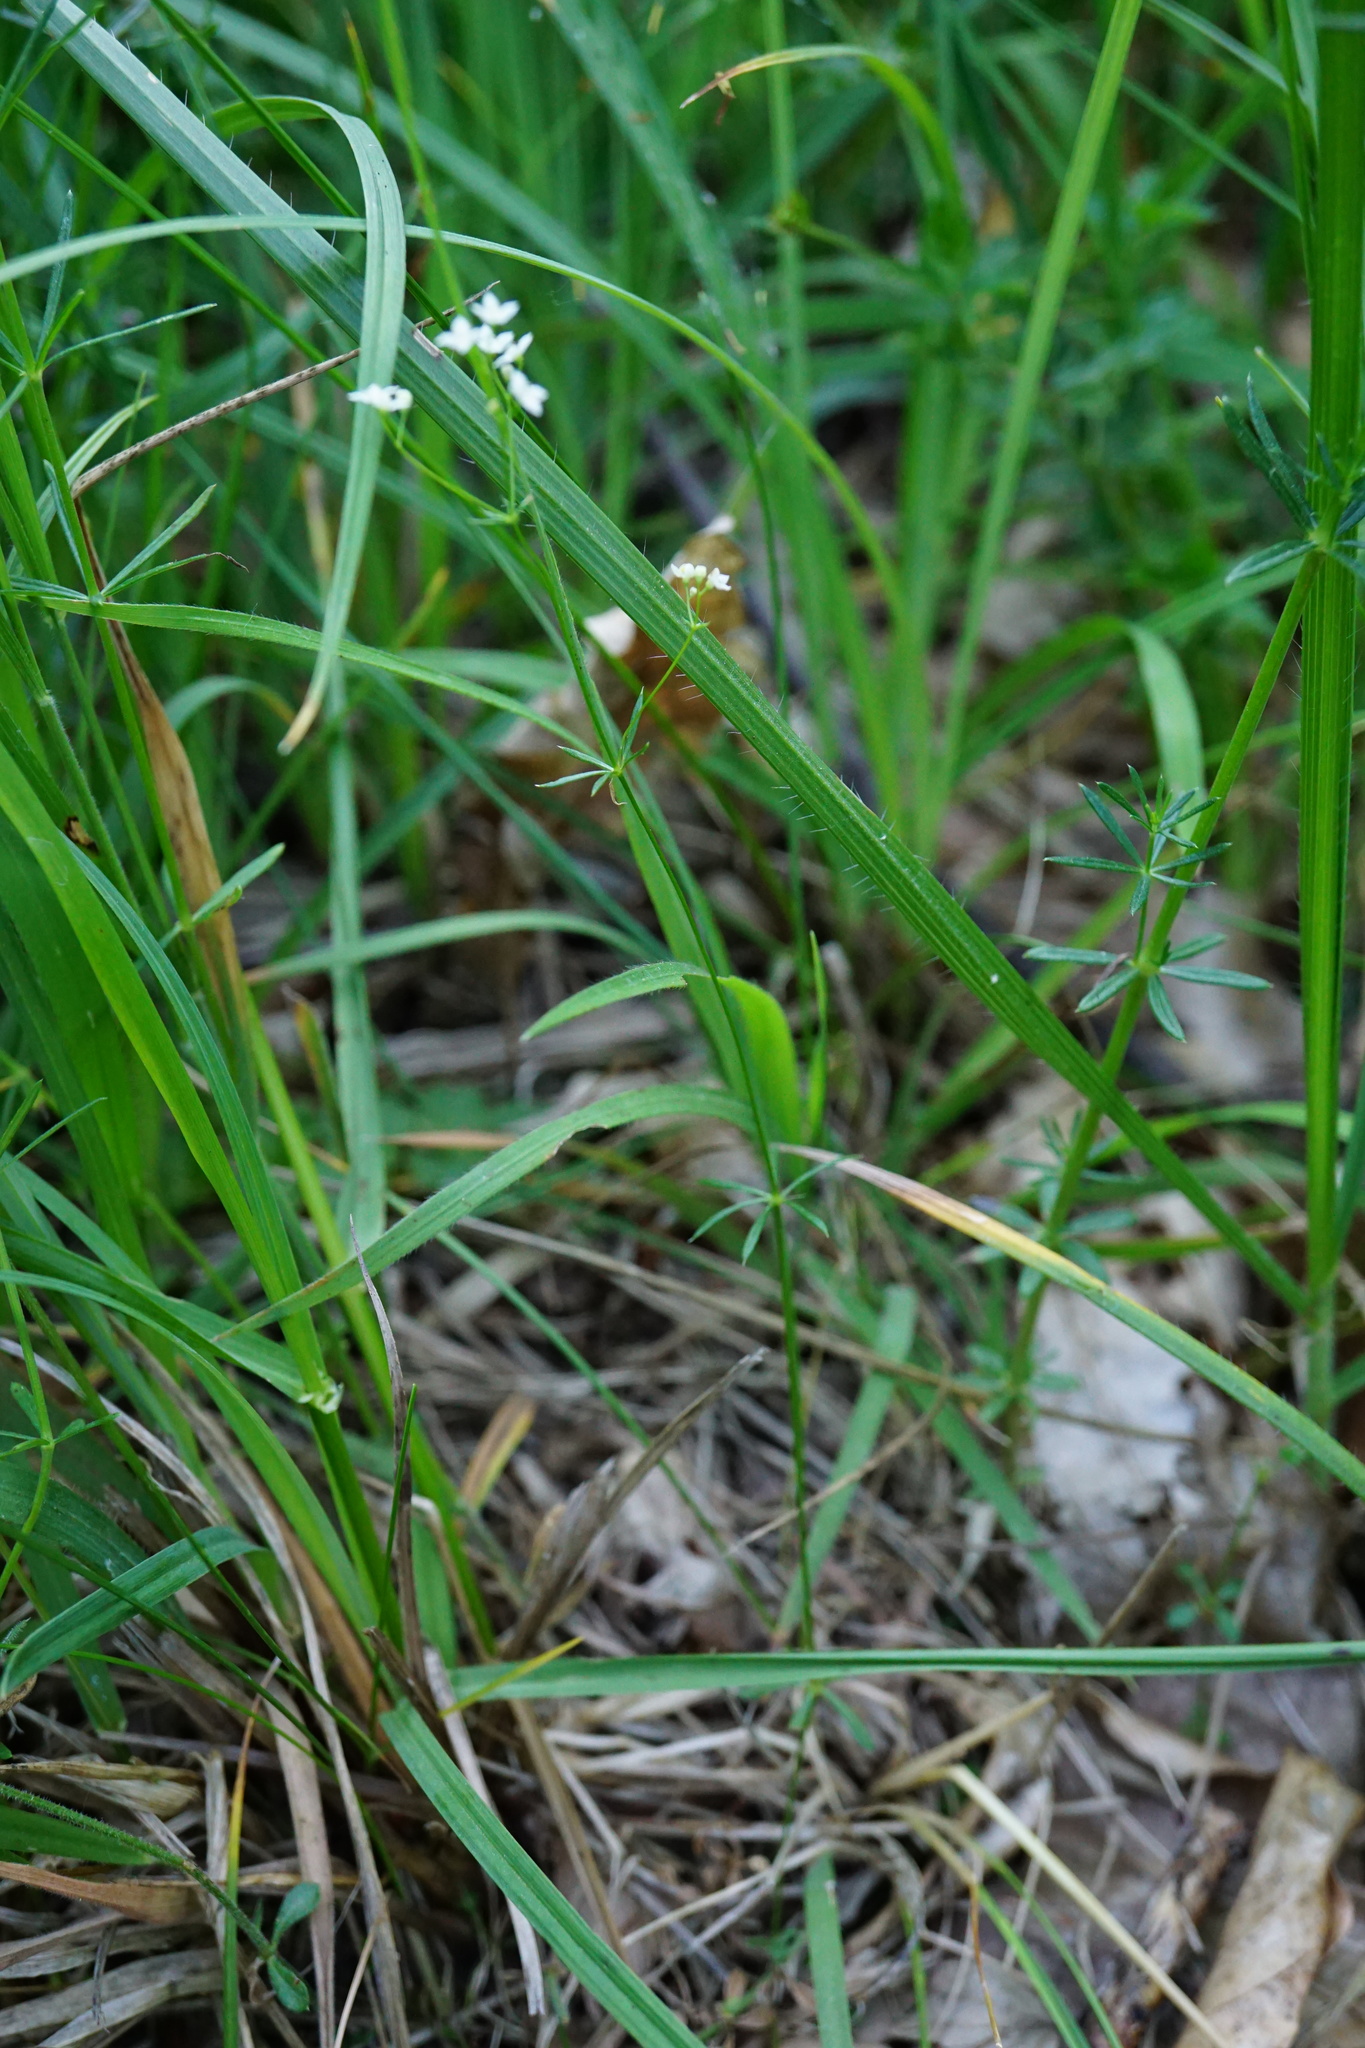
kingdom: Plantae
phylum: Tracheophyta
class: Magnoliopsida
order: Gentianales
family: Rubiaceae
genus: Galium
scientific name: Galium pumilum
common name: Slender bedstraw
